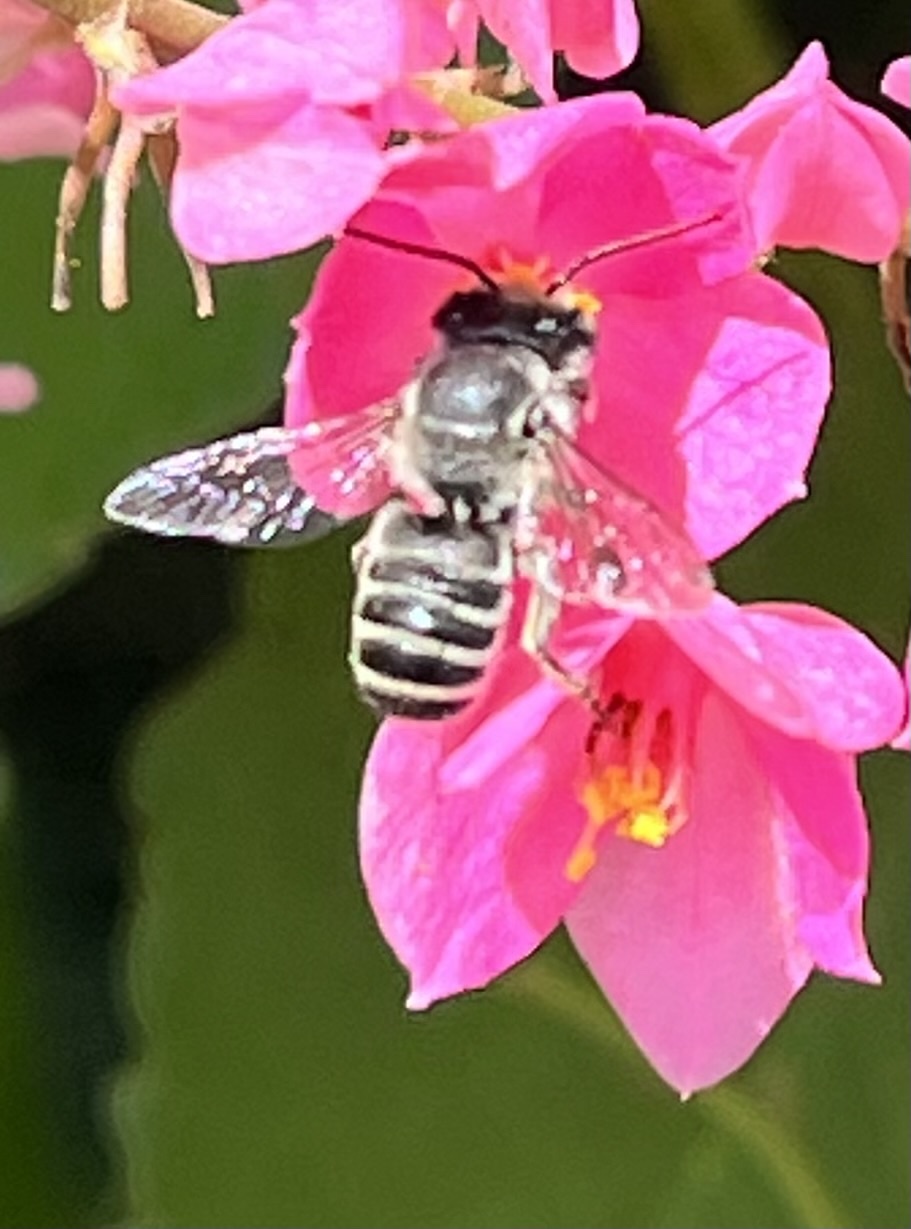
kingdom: Animalia
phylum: Arthropoda
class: Insecta
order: Hymenoptera
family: Megachilidae
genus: Megachile
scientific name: Megachile texana
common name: Texas leafcutter
